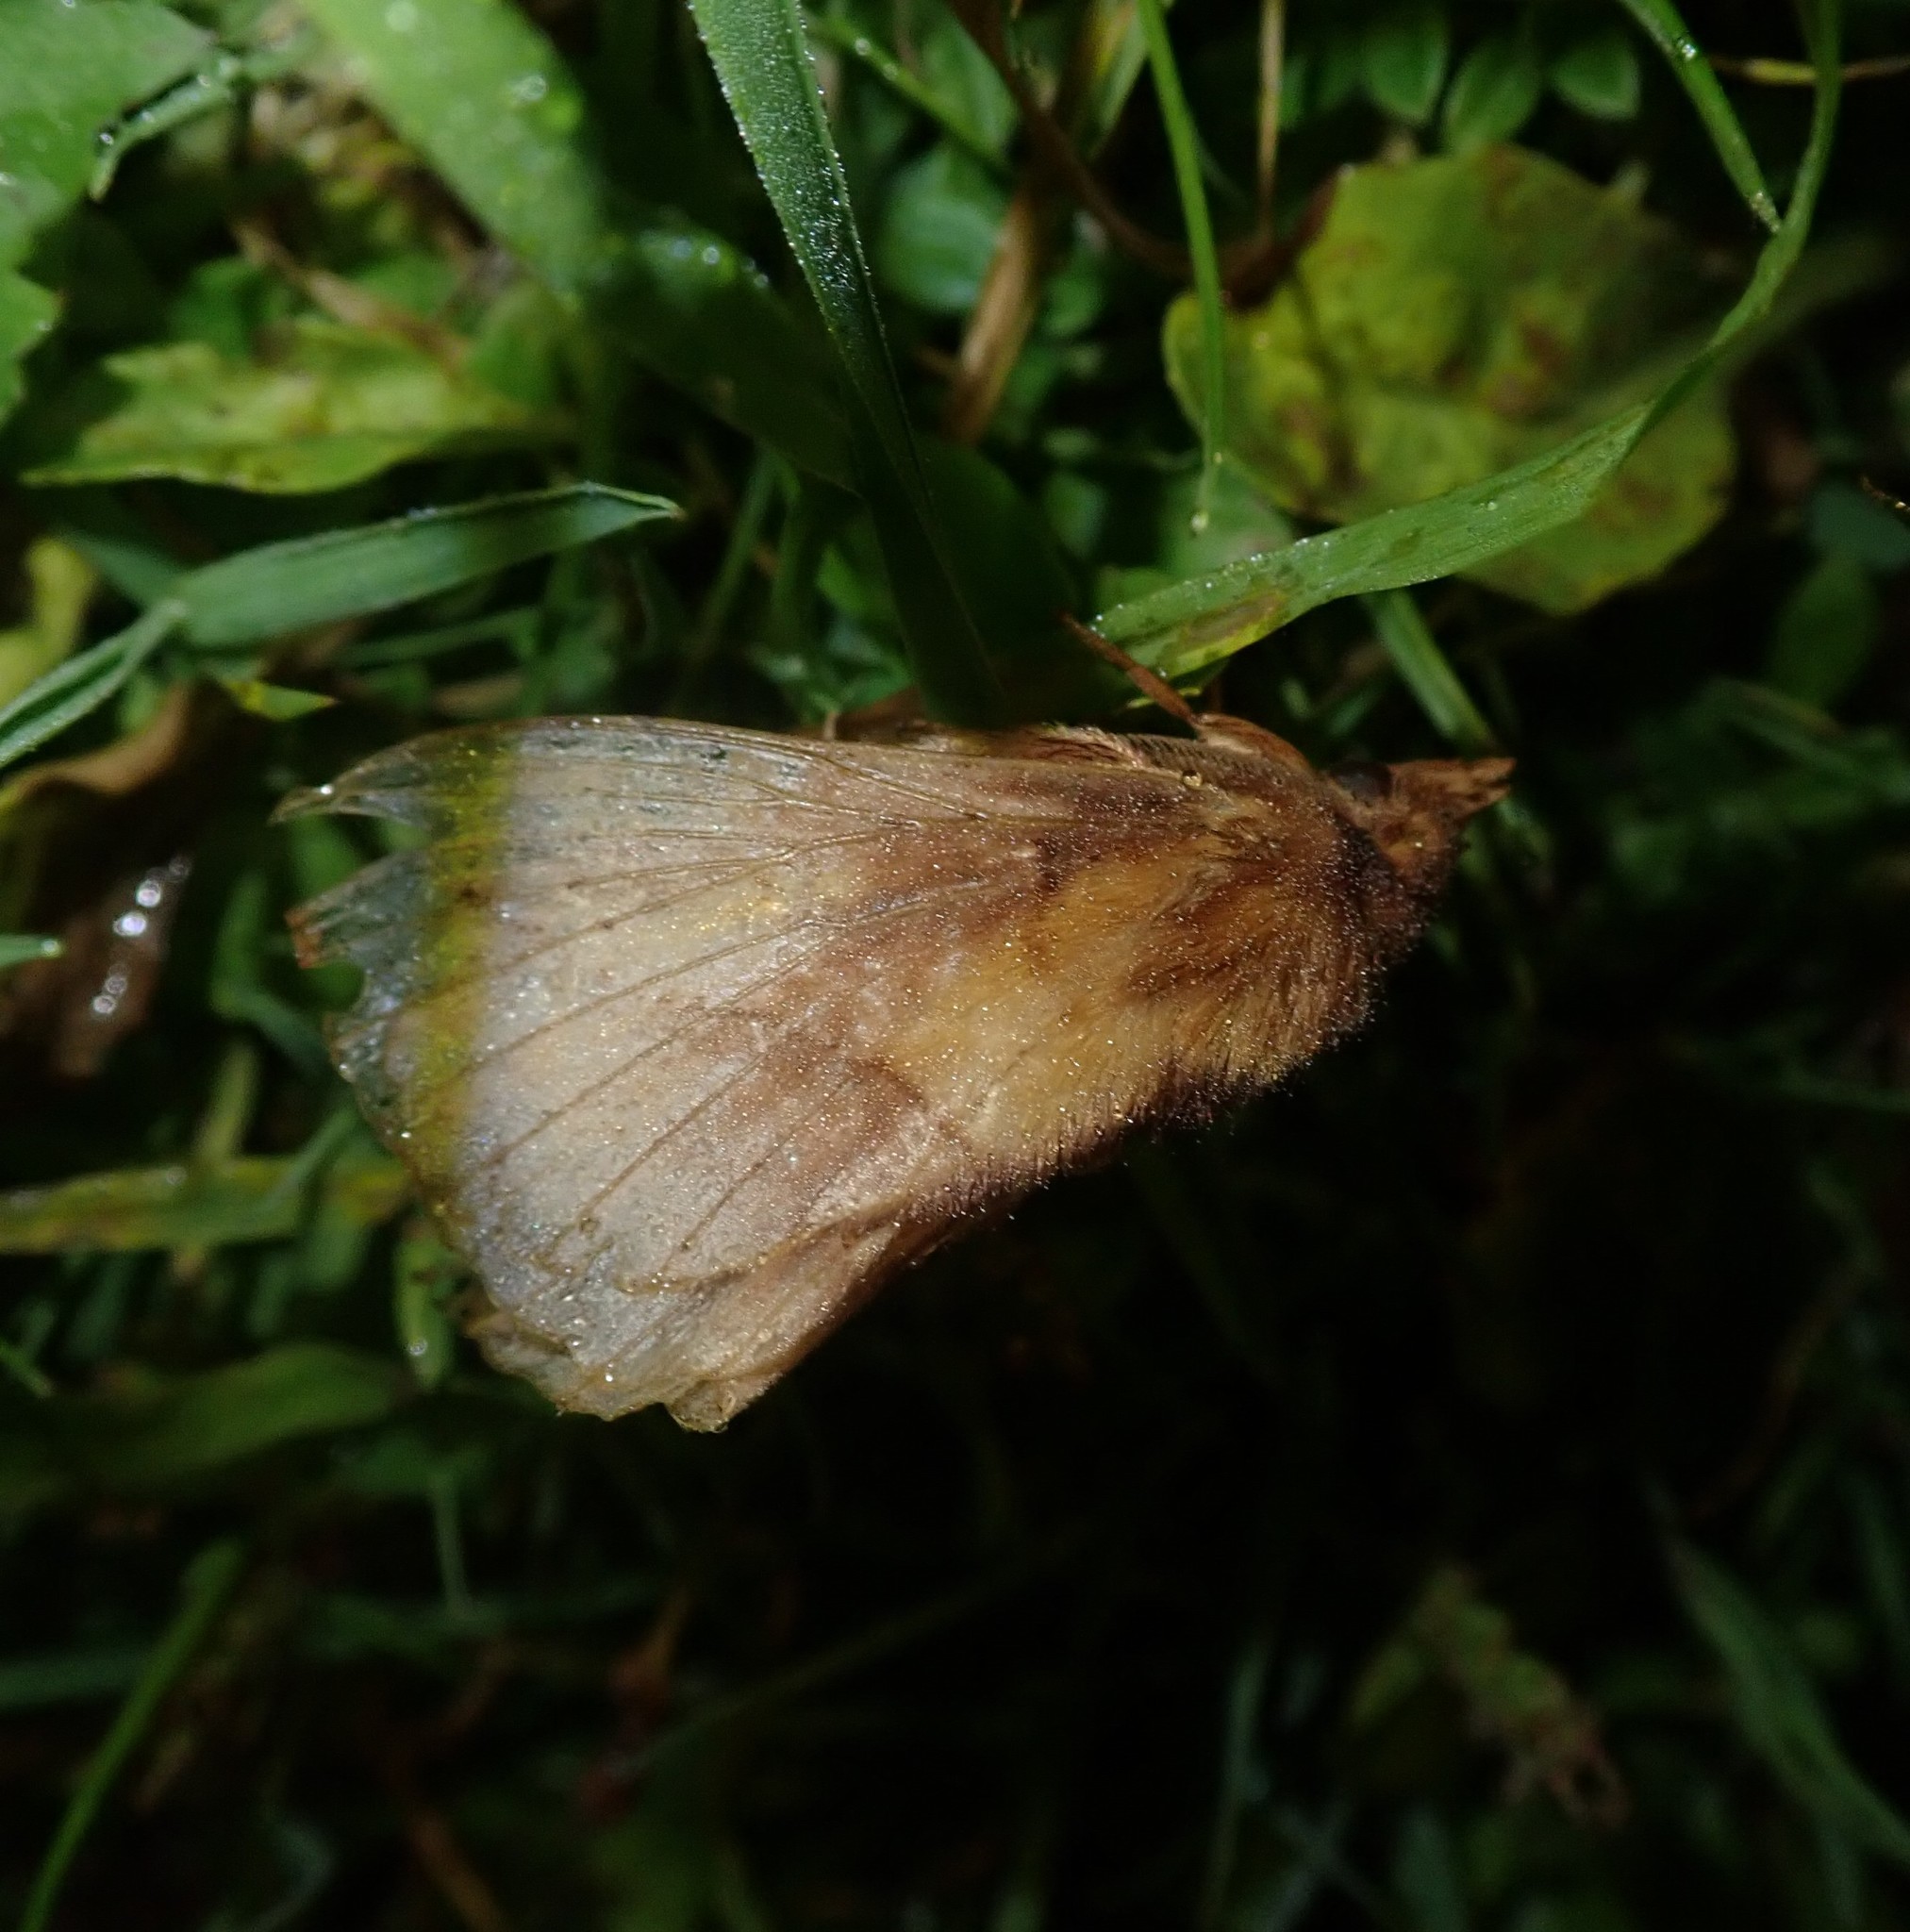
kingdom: Animalia
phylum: Arthropoda
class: Insecta
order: Lepidoptera
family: Lasiocampidae
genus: Euthrix
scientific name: Euthrix potatoria
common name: Drinker
